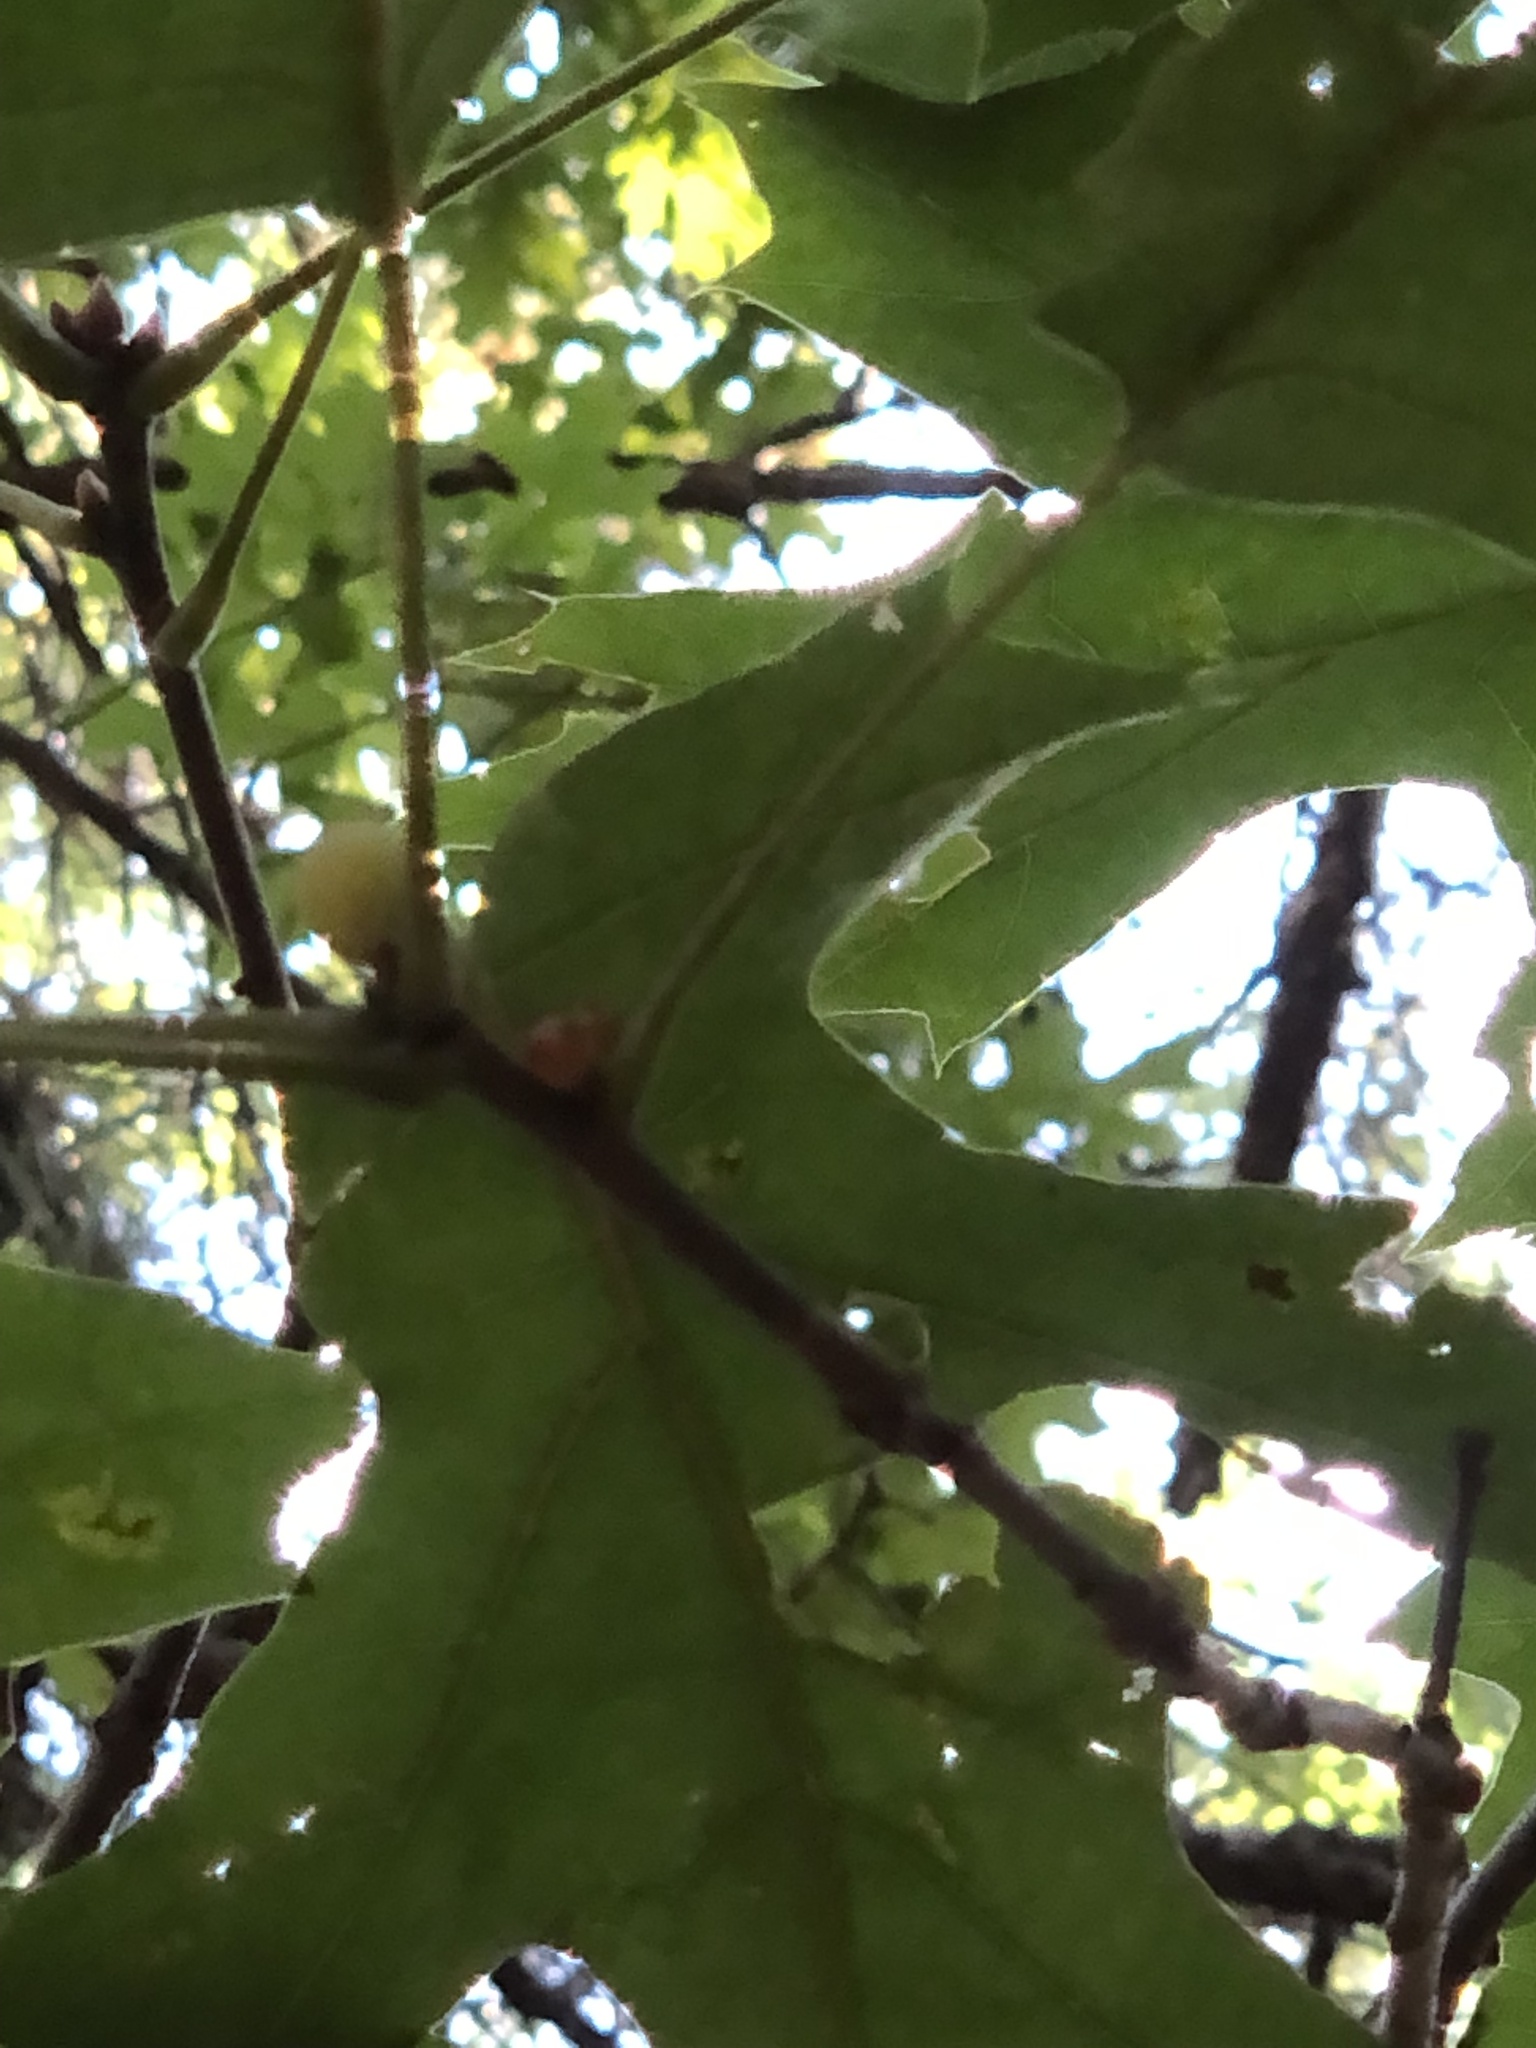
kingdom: Animalia
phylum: Arthropoda
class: Insecta
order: Hymenoptera
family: Cynipidae
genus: Amphibolips
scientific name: Amphibolips
